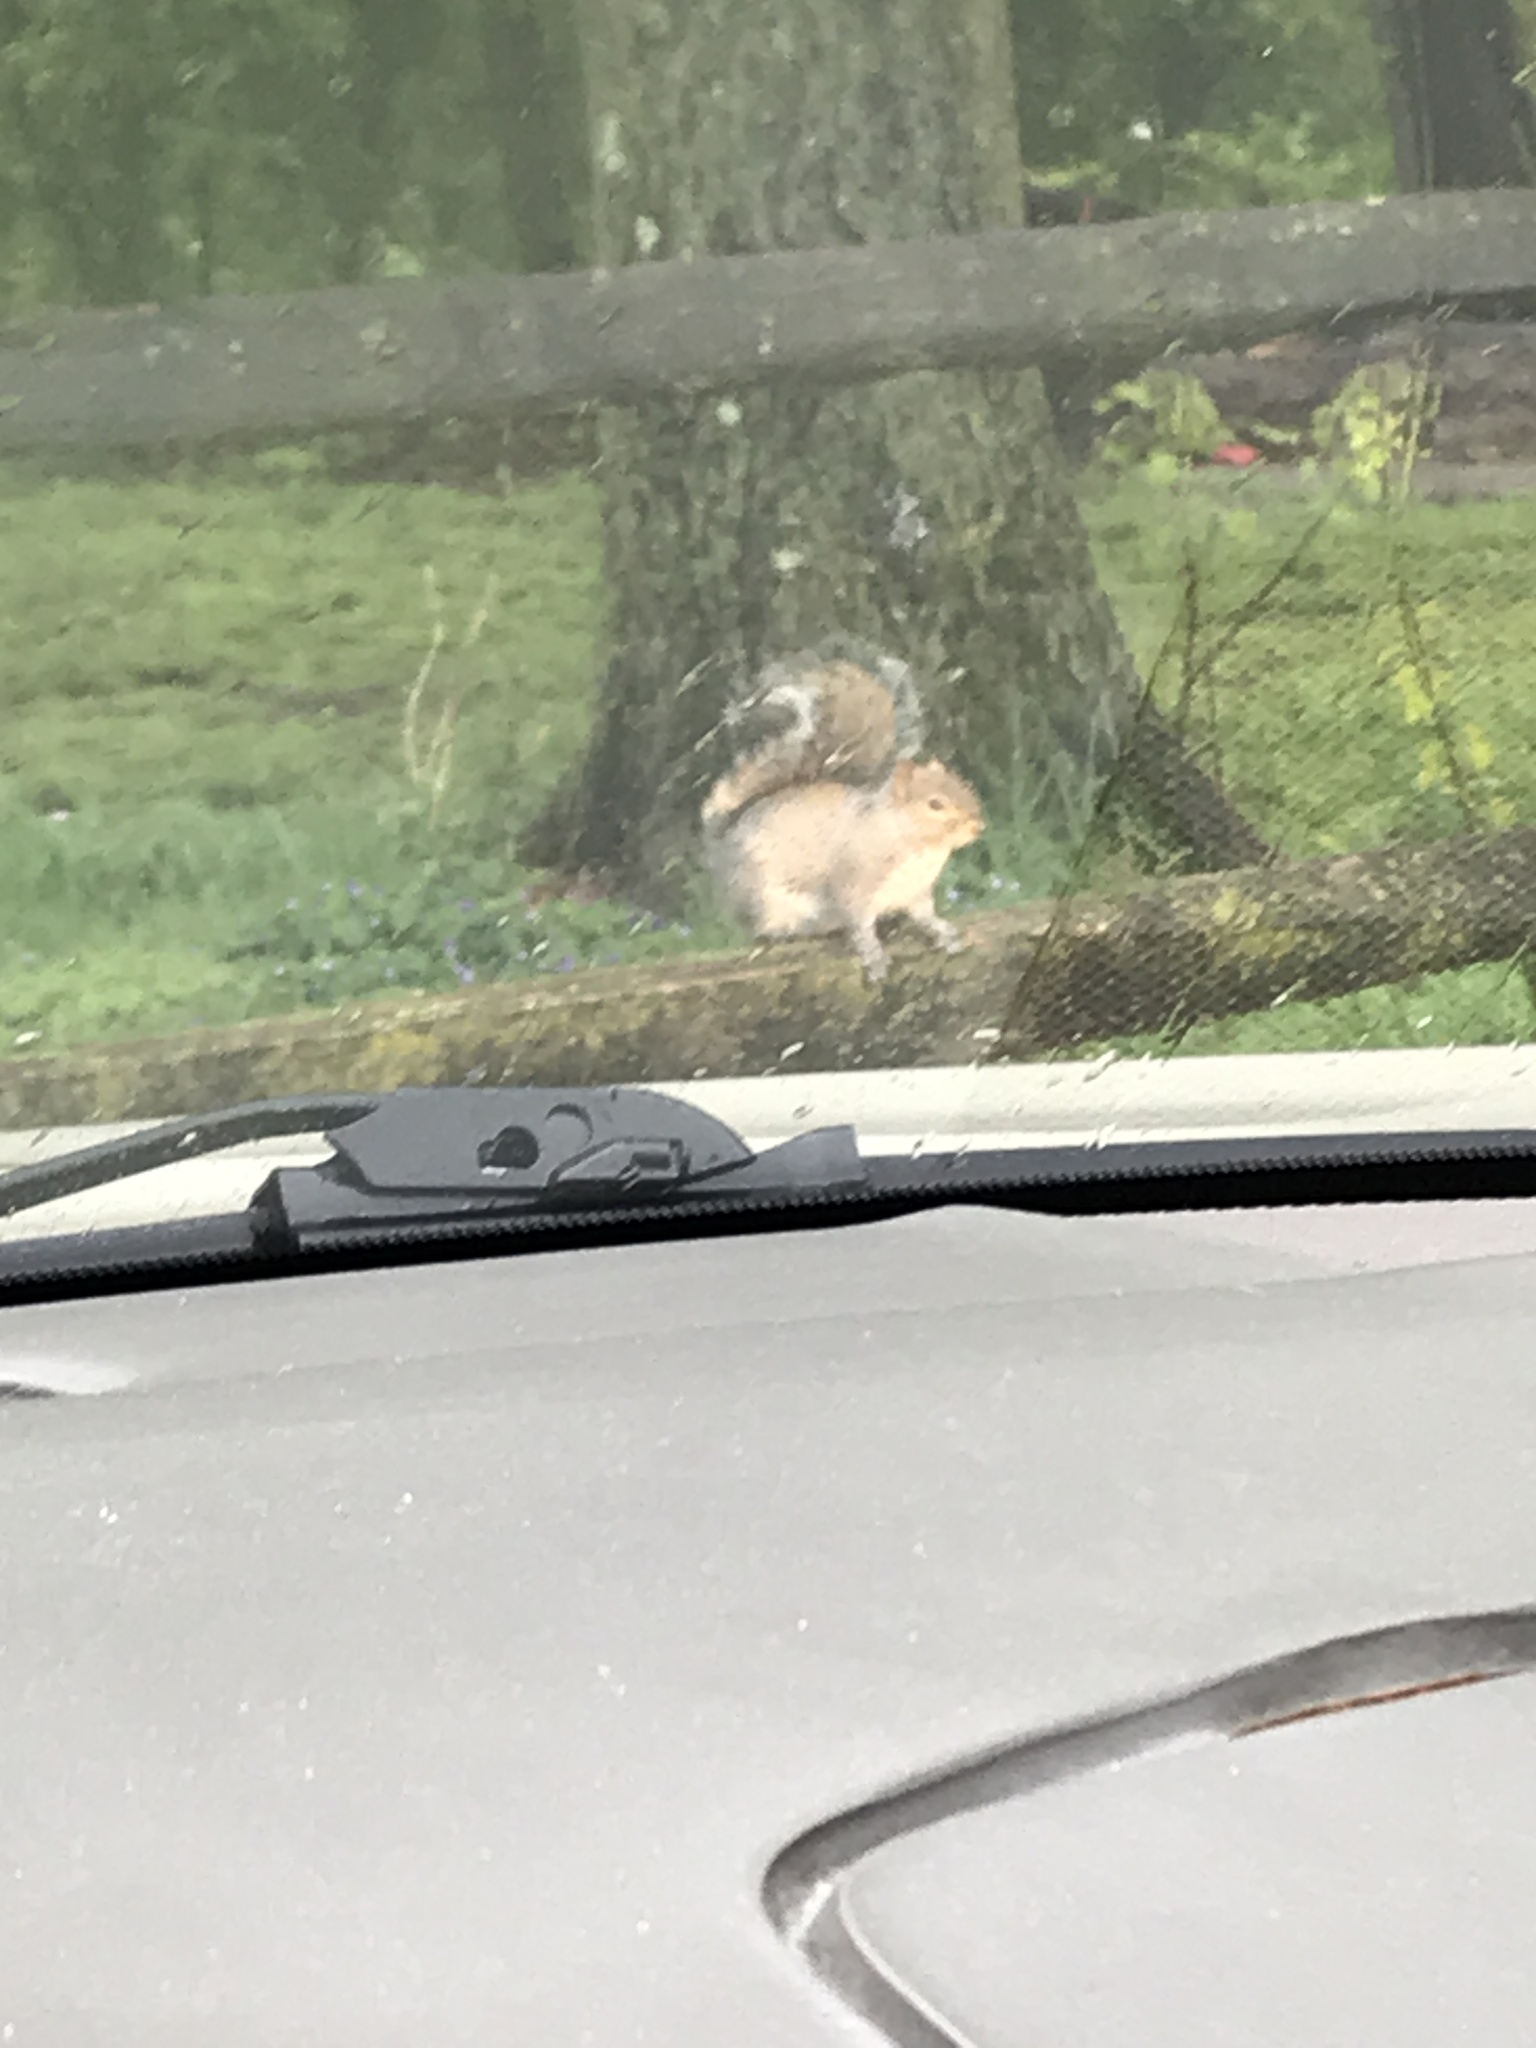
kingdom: Animalia
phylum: Chordata
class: Mammalia
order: Rodentia
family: Sciuridae
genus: Sciurus
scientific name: Sciurus carolinensis
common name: Eastern gray squirrel
